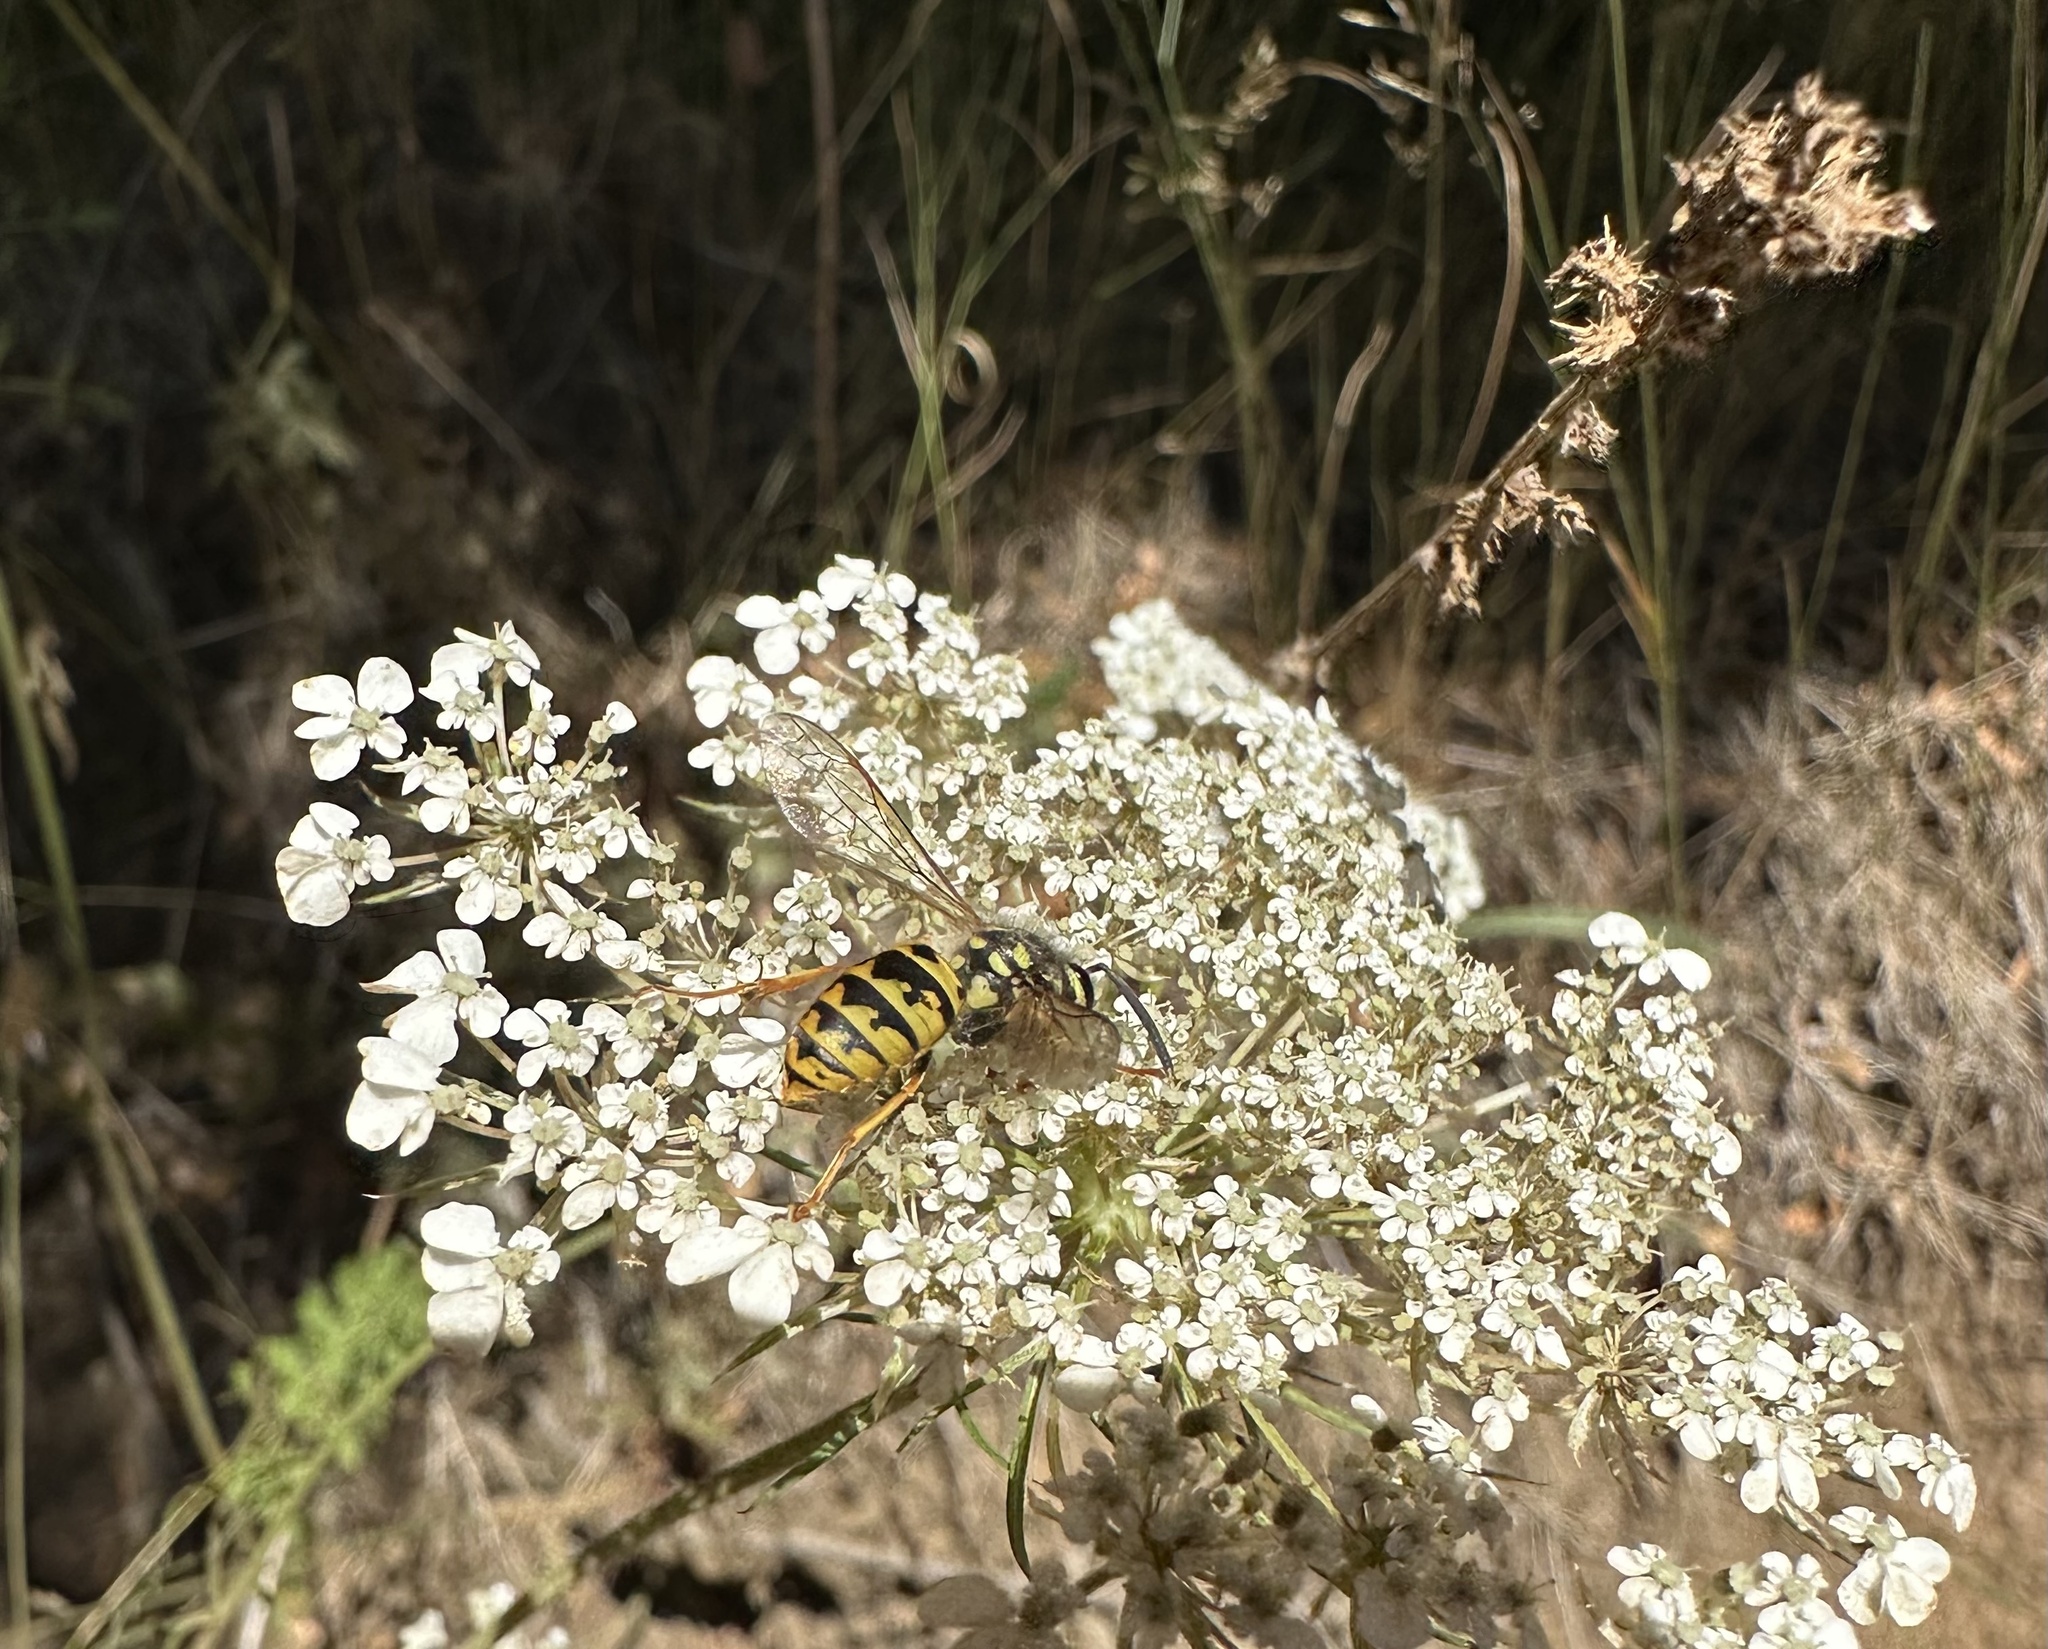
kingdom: Animalia
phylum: Arthropoda
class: Insecta
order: Hymenoptera
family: Vespidae
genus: Vespula
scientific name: Vespula germanica
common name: German wasp
